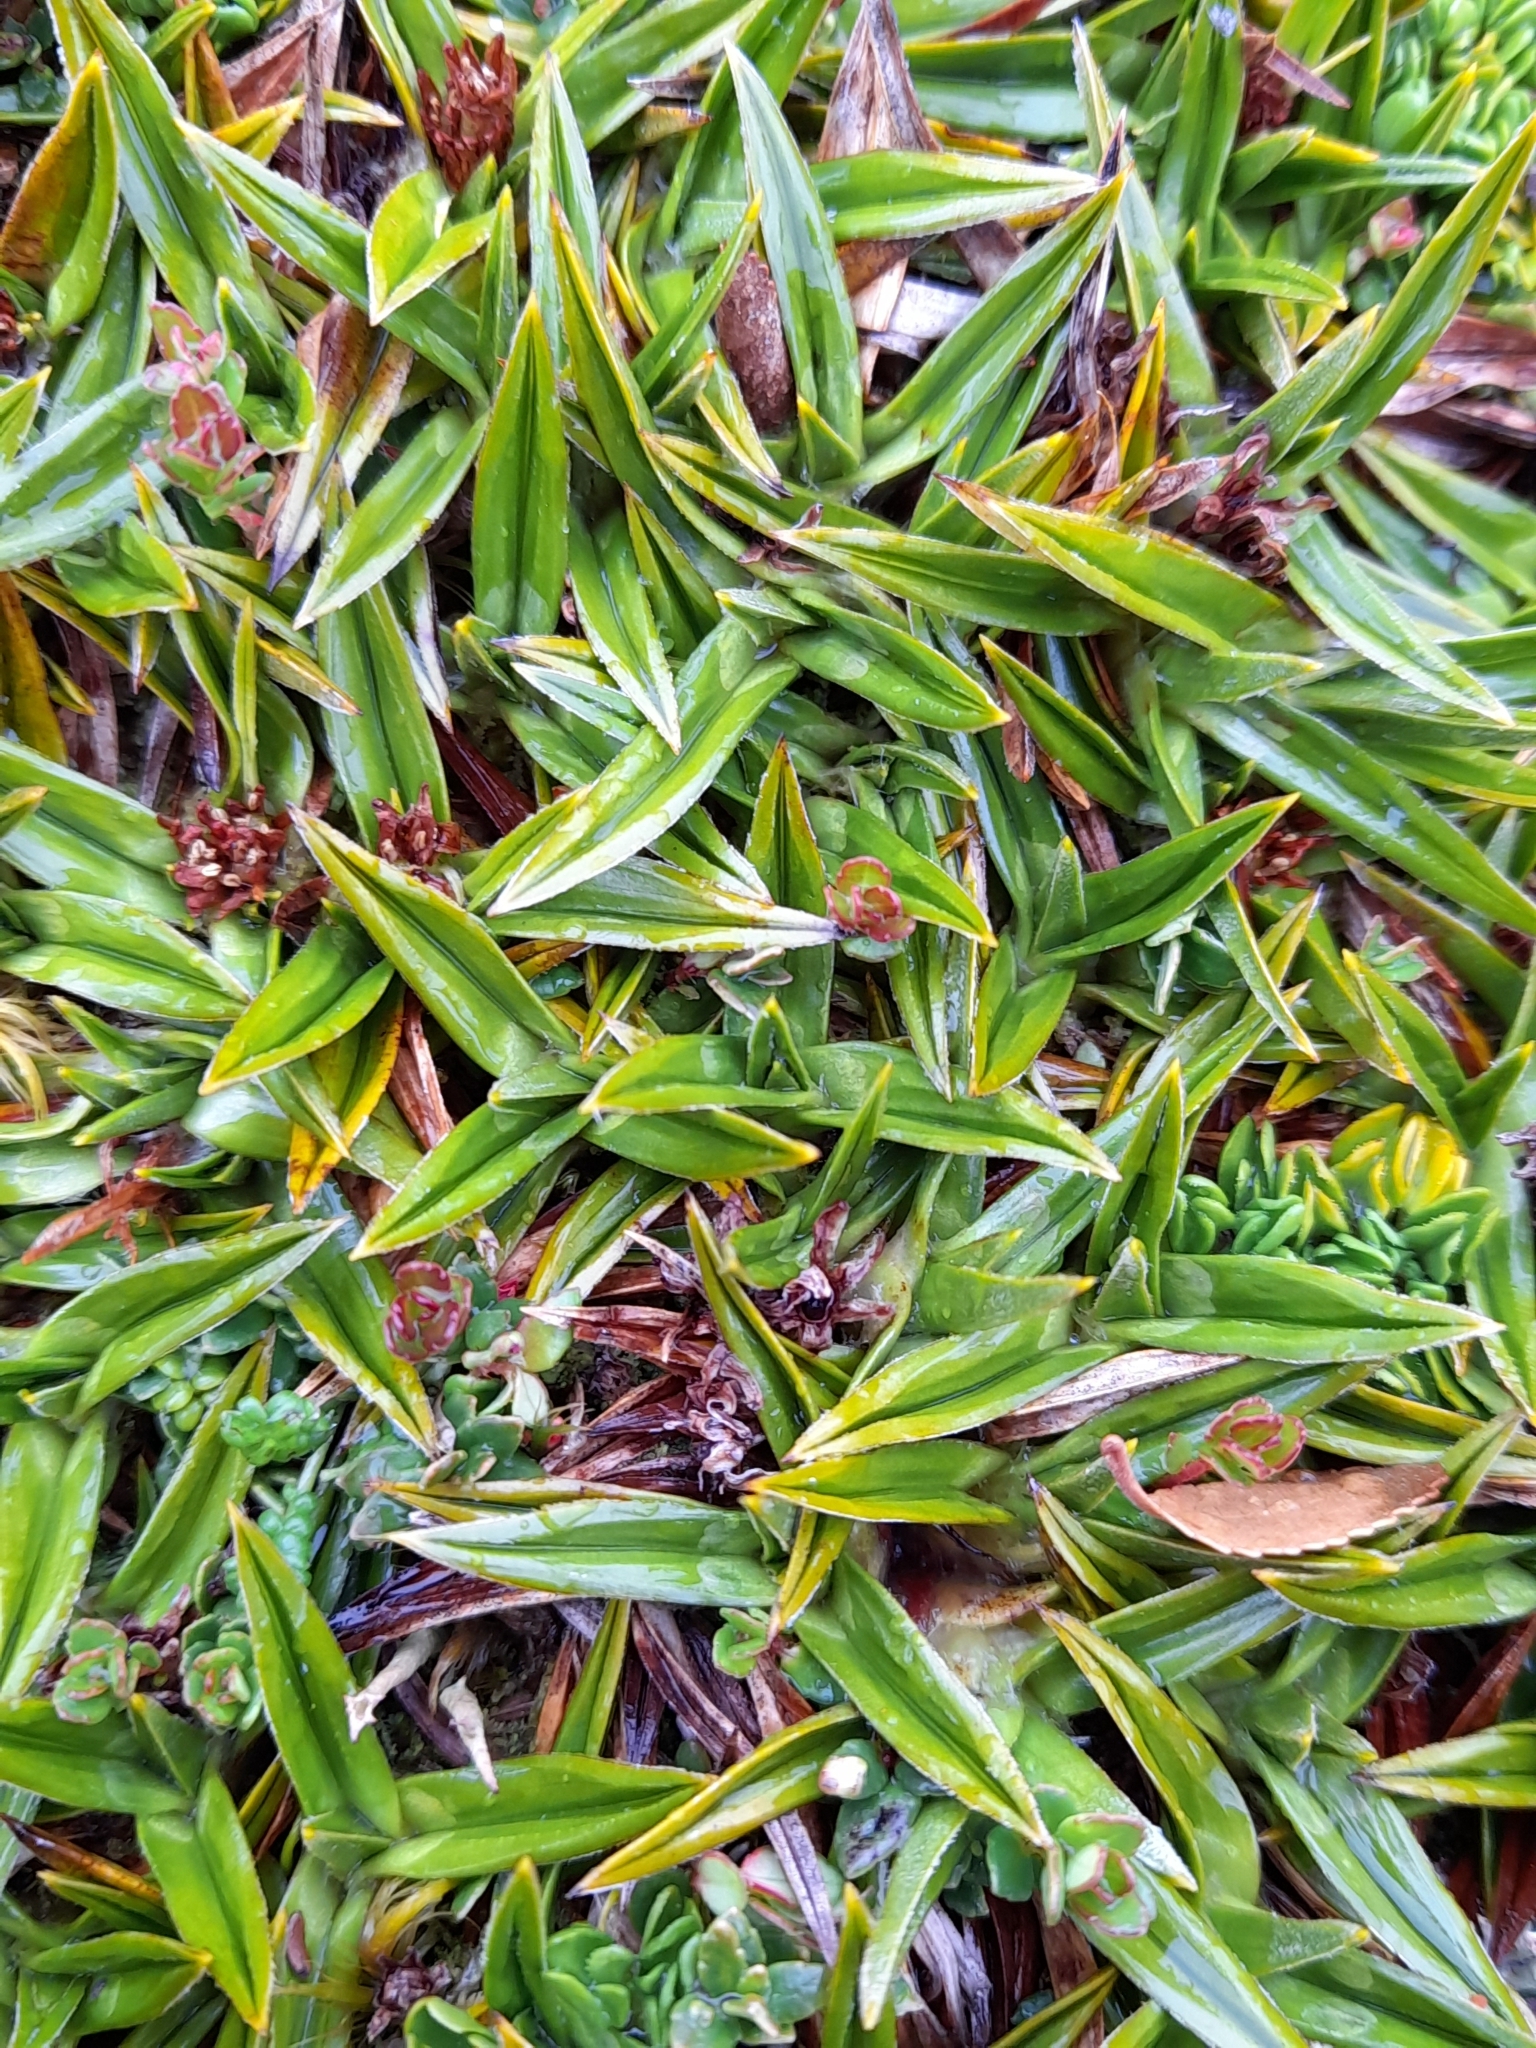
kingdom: Plantae
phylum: Tracheophyta
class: Liliopsida
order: Asparagales
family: Asteliaceae
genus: Astelia
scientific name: Astelia pumila
